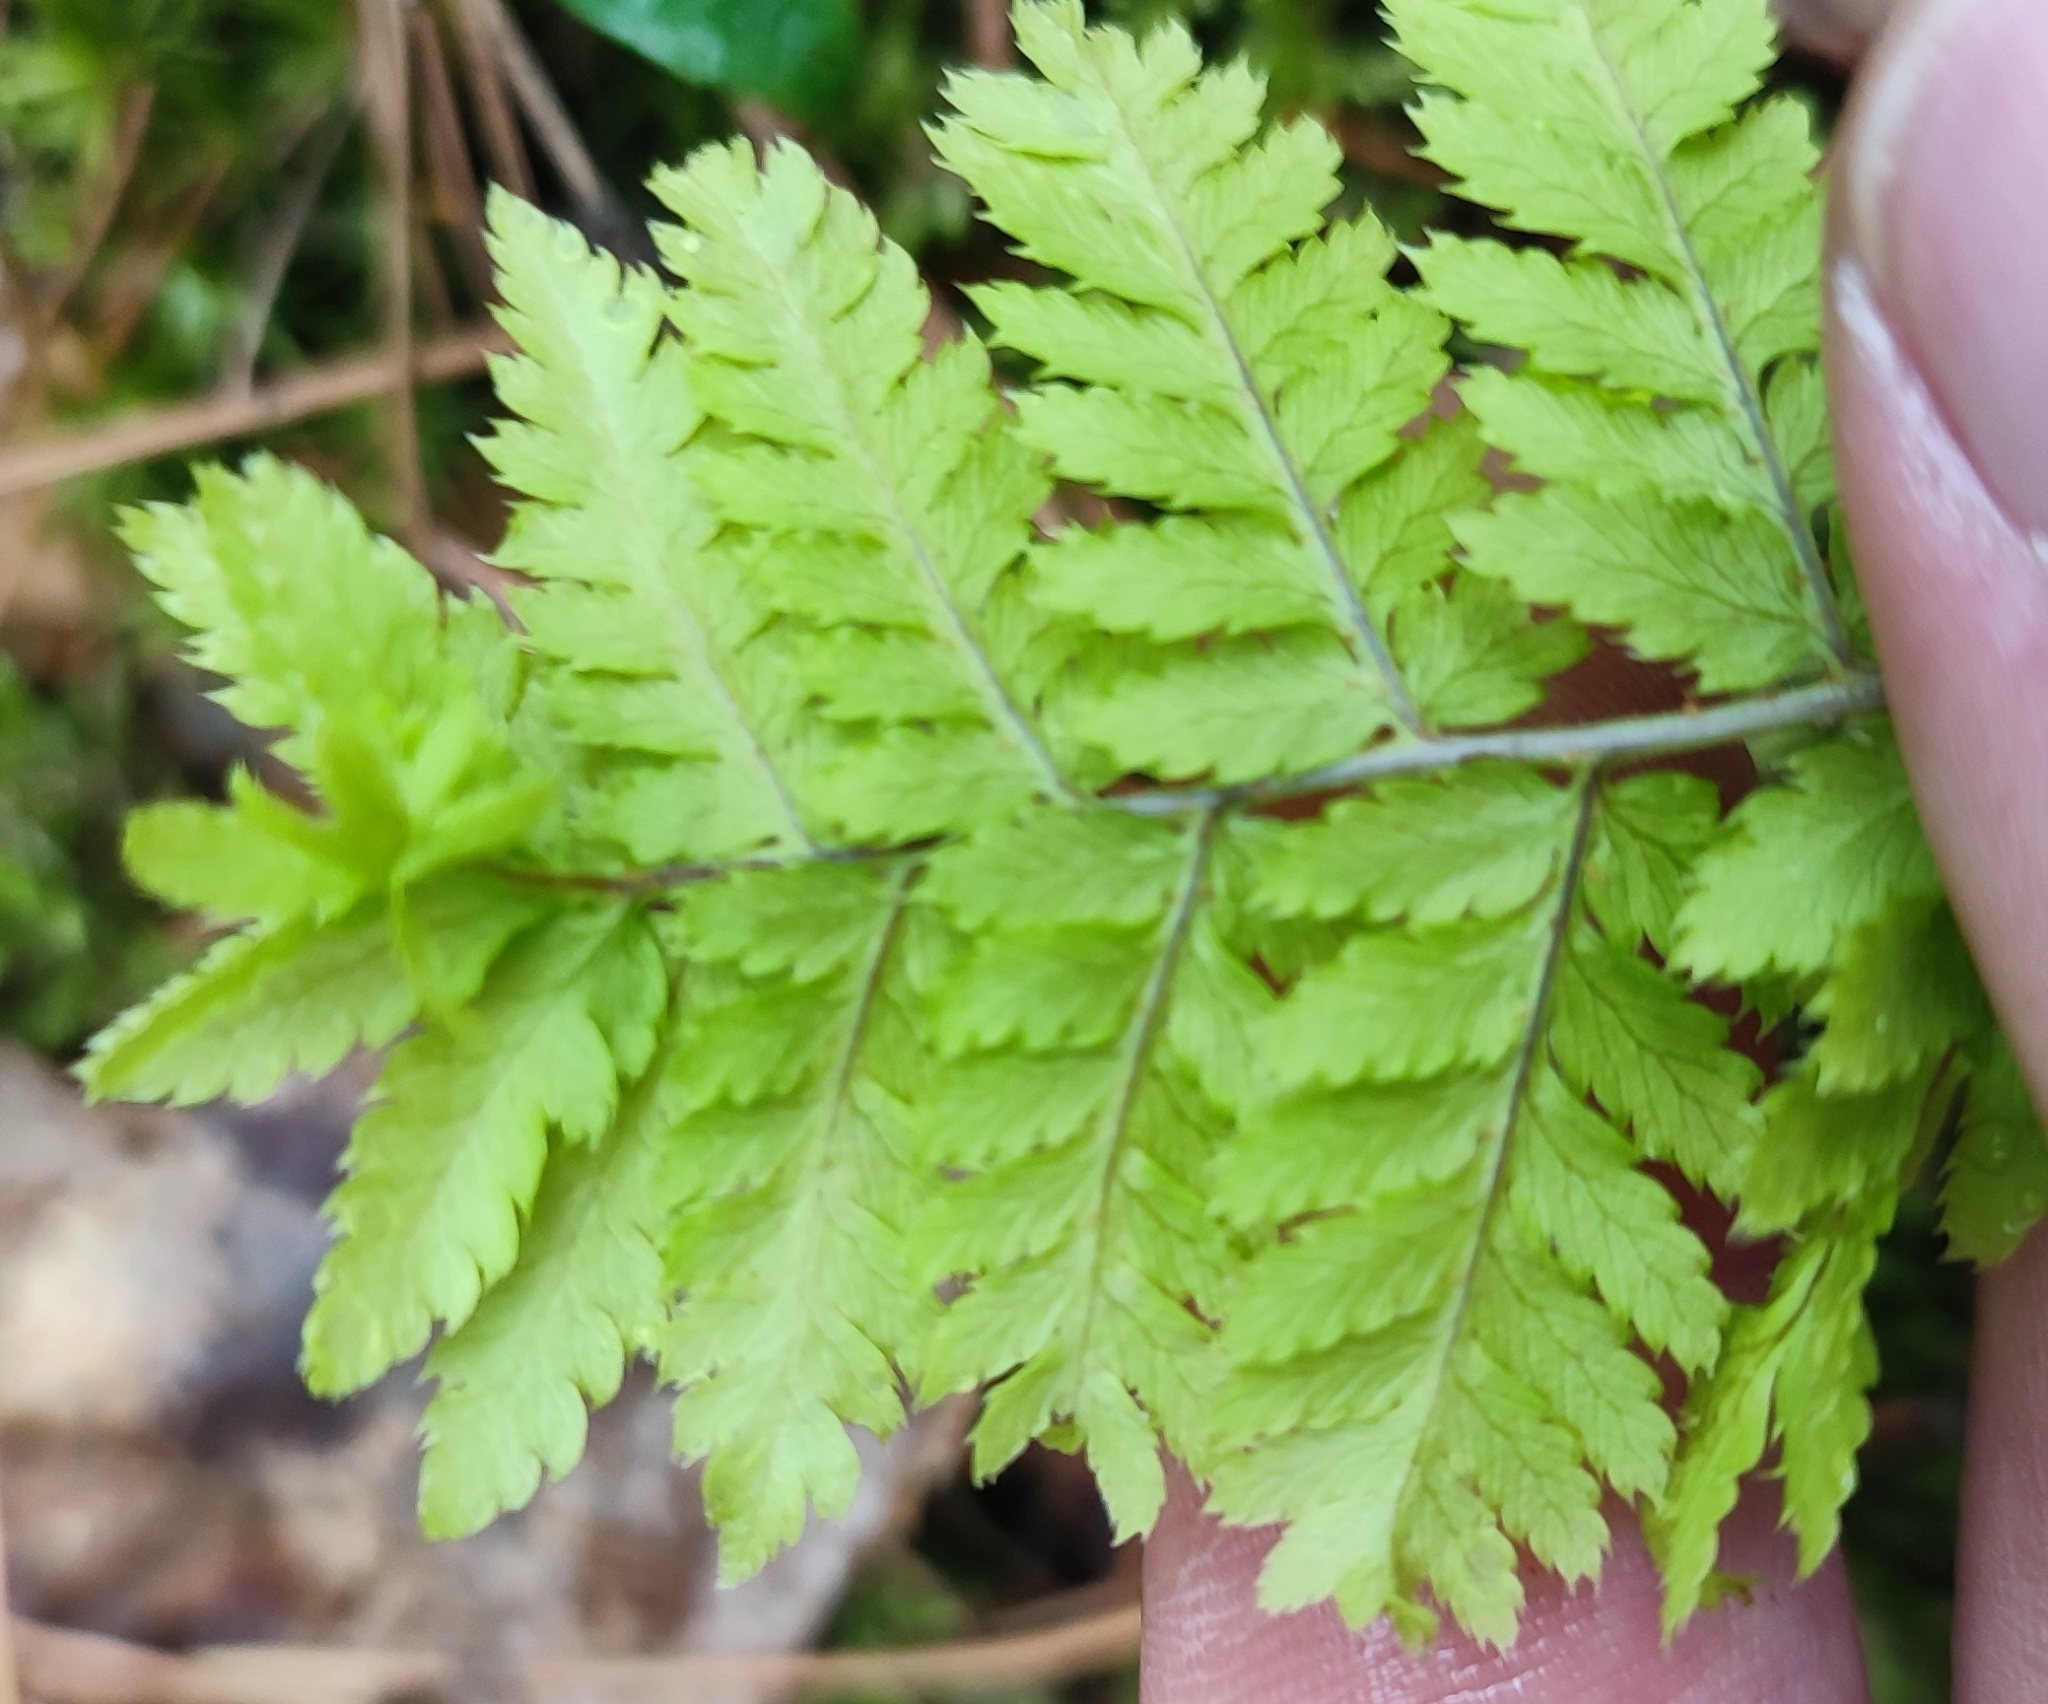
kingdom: Plantae
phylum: Tracheophyta
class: Polypodiopsida
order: Polypodiales
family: Dryopteridaceae
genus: Dryopteris
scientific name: Dryopteris carthusiana
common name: Narrow buckler-fern
